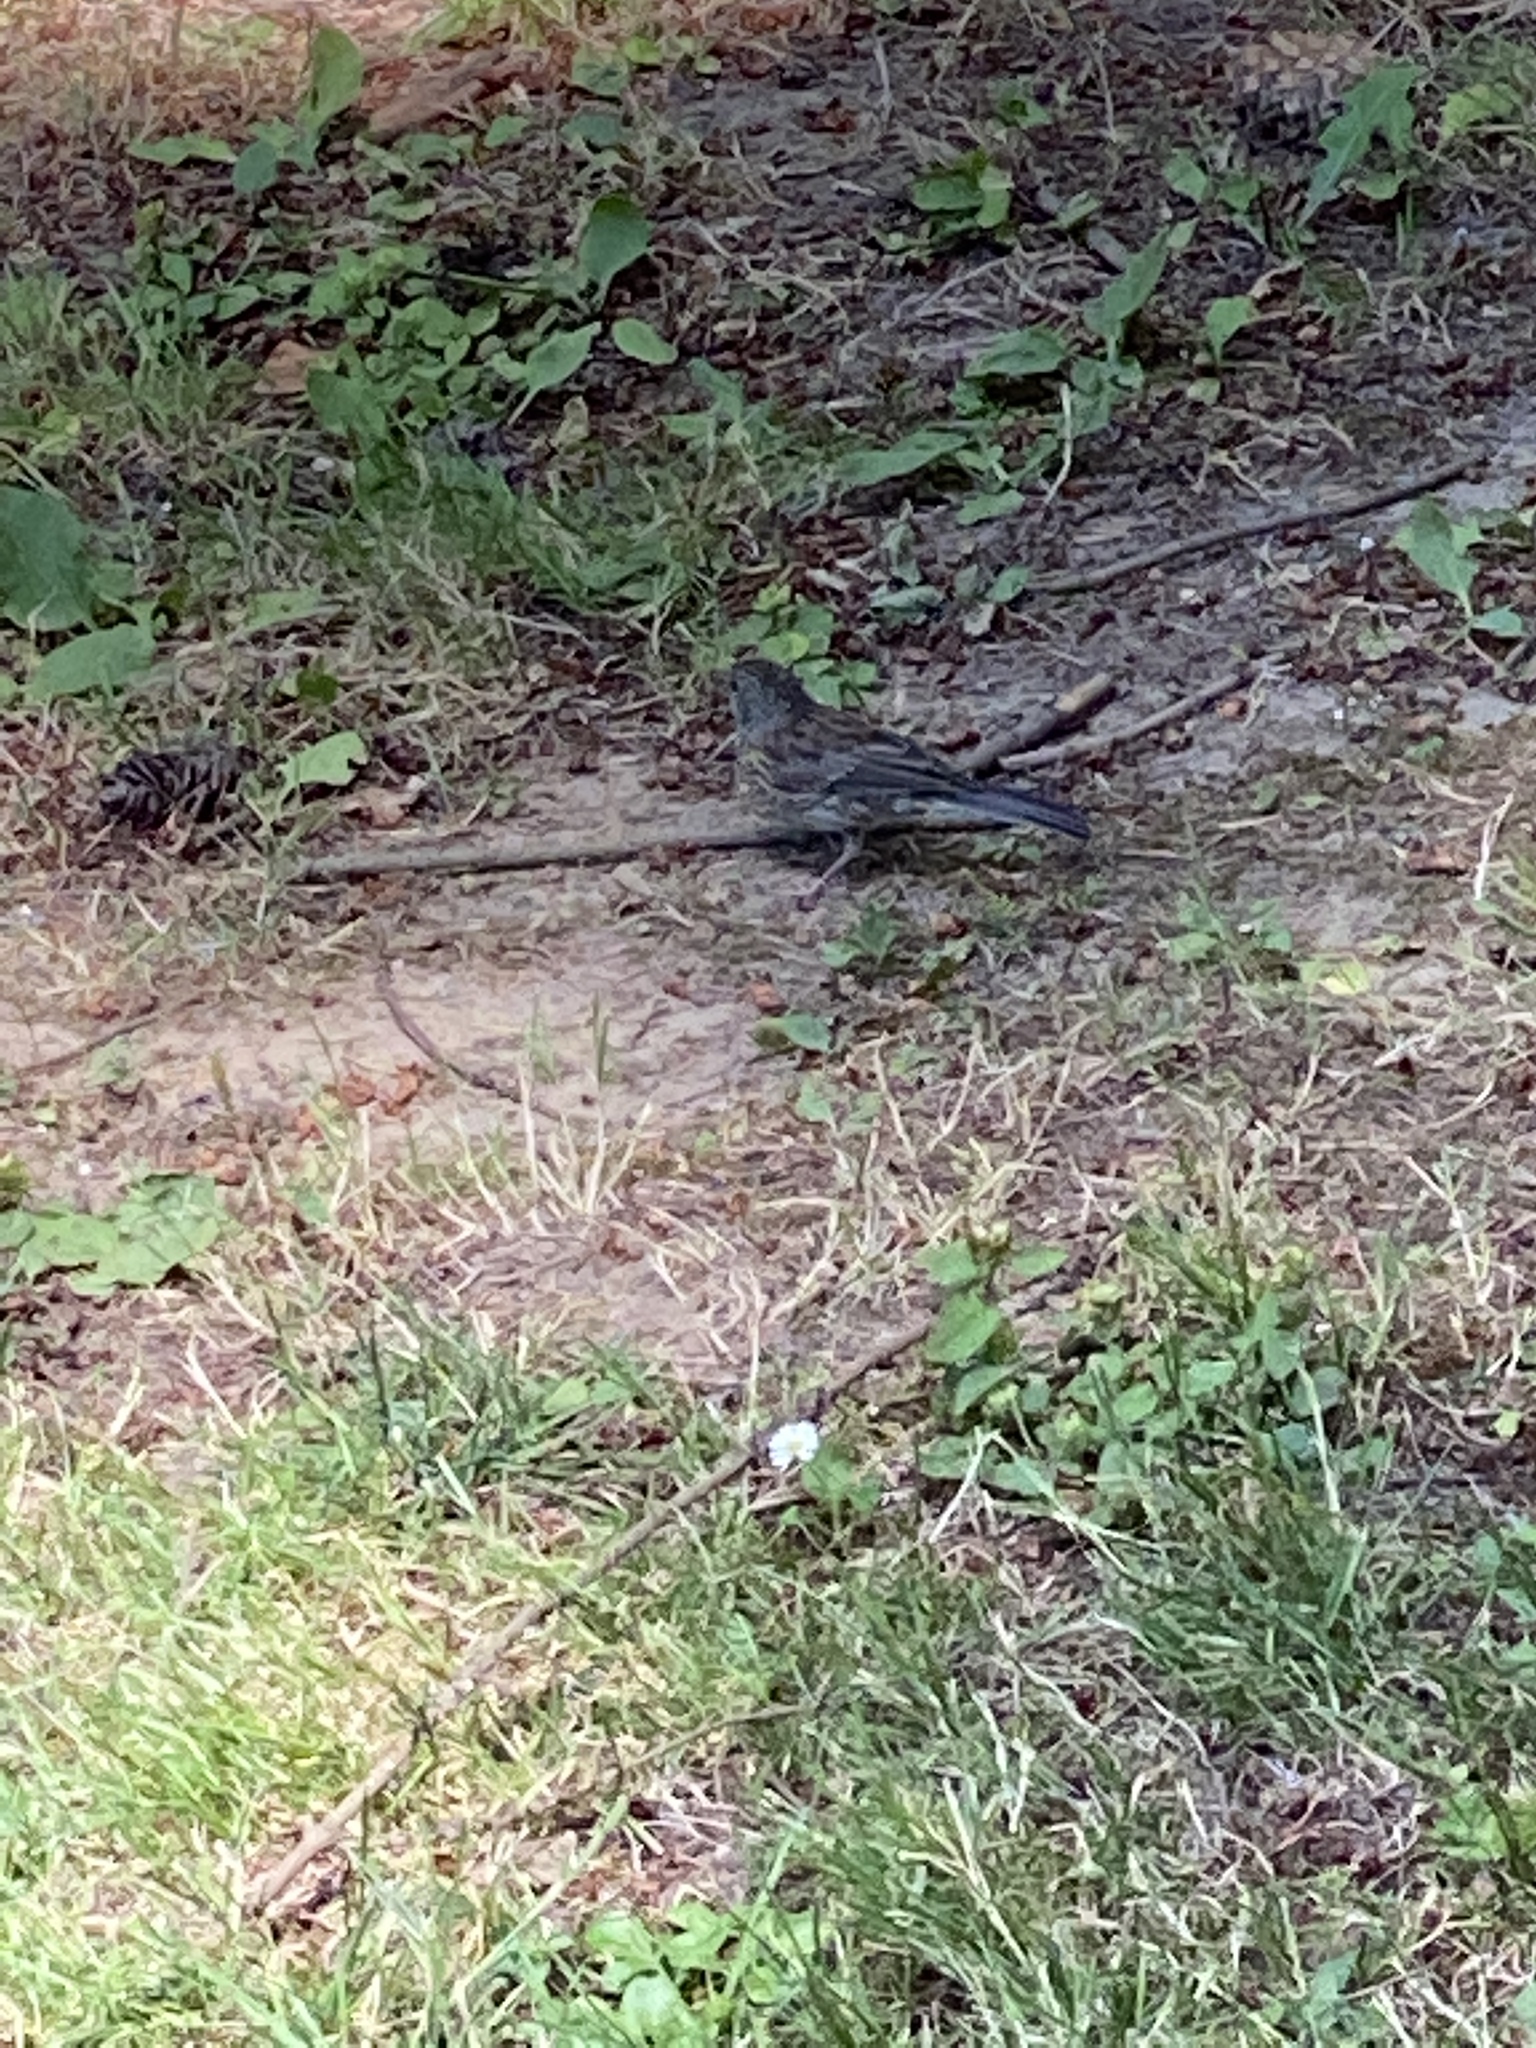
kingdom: Animalia
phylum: Chordata
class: Aves
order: Passeriformes
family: Passerellidae
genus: Junco
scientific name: Junco hyemalis
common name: Dark-eyed junco
